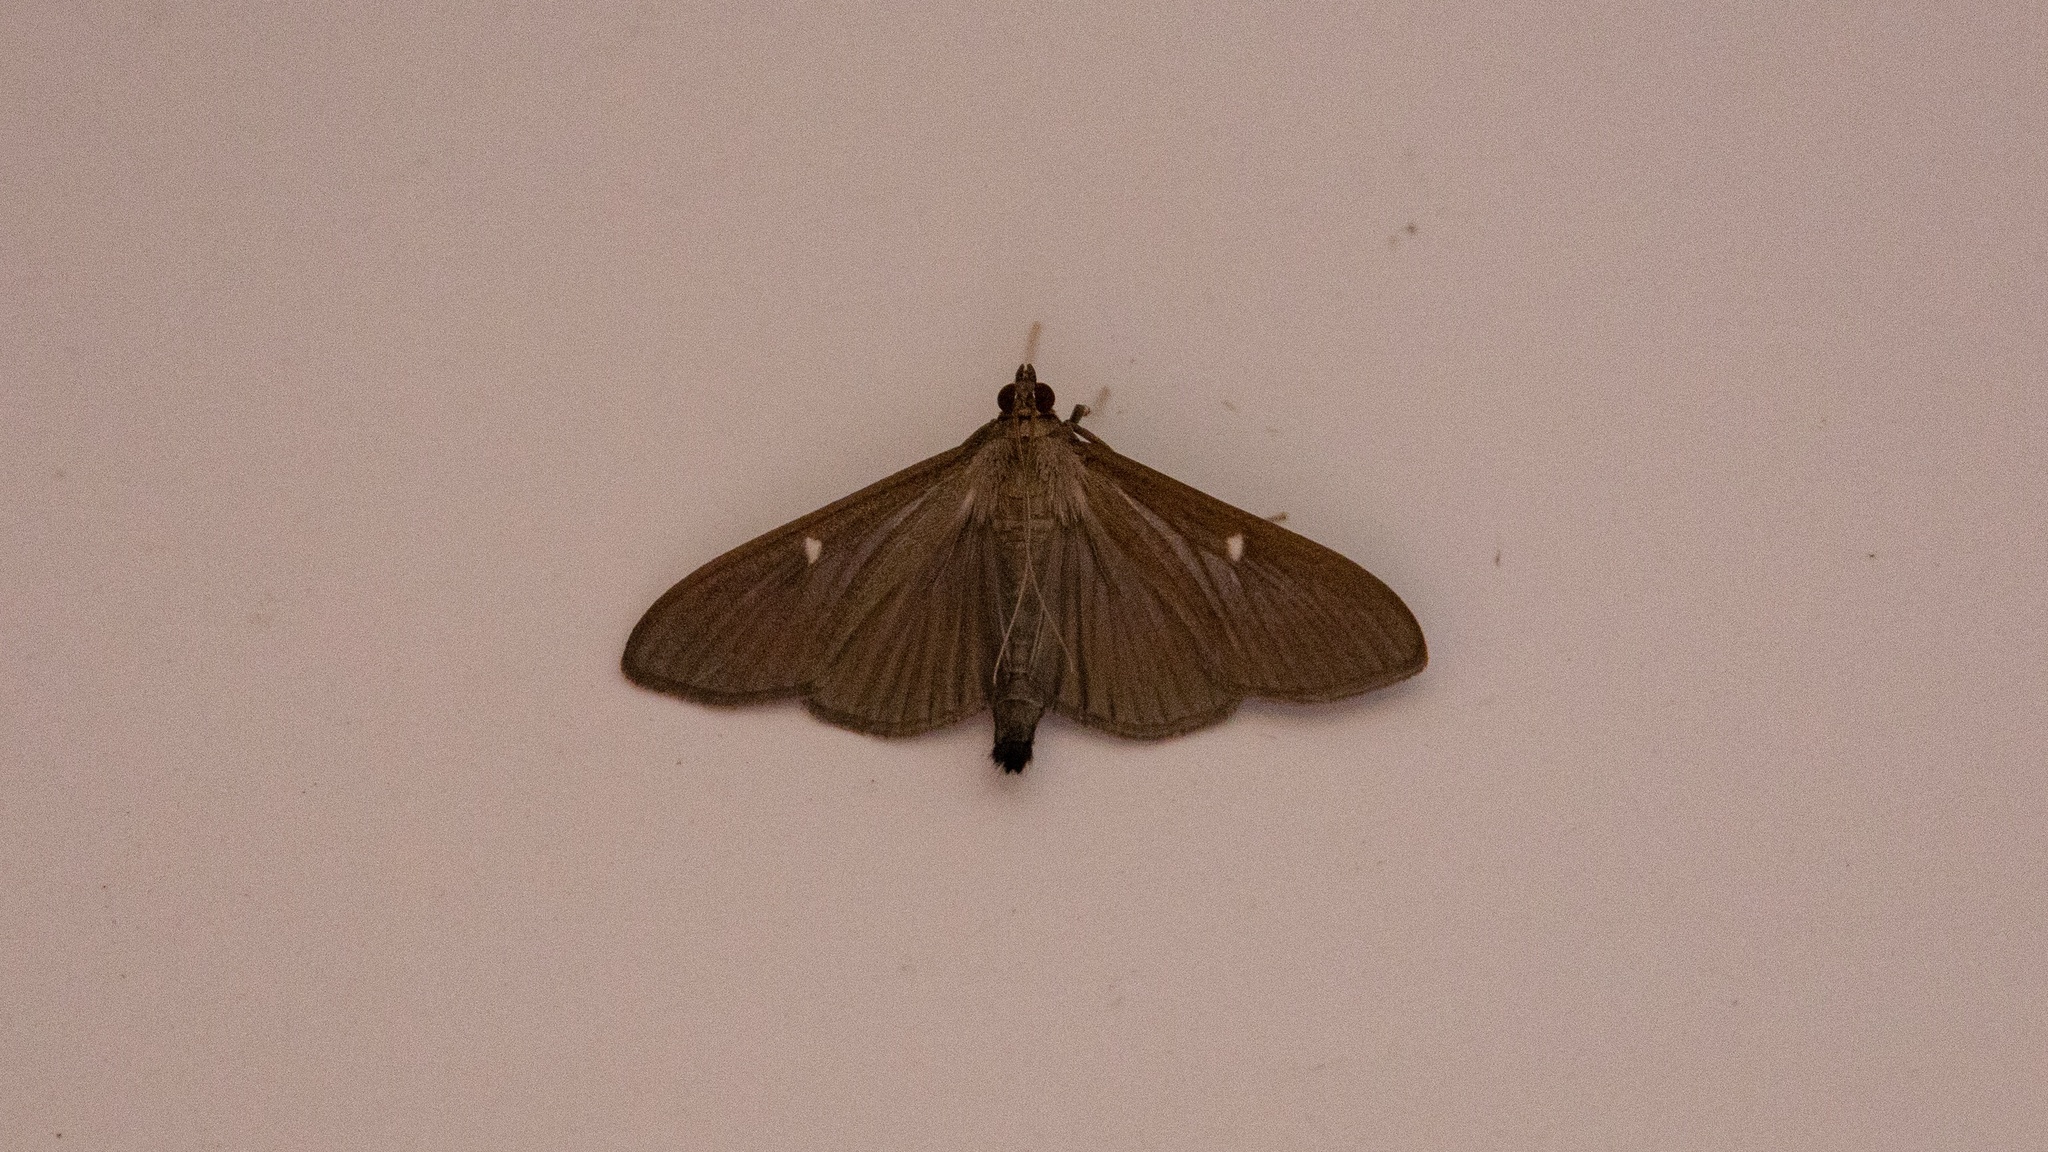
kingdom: Animalia
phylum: Arthropoda
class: Insecta
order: Lepidoptera
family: Crambidae
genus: Cydalima
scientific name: Cydalima perspectalis
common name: Box tree moth
